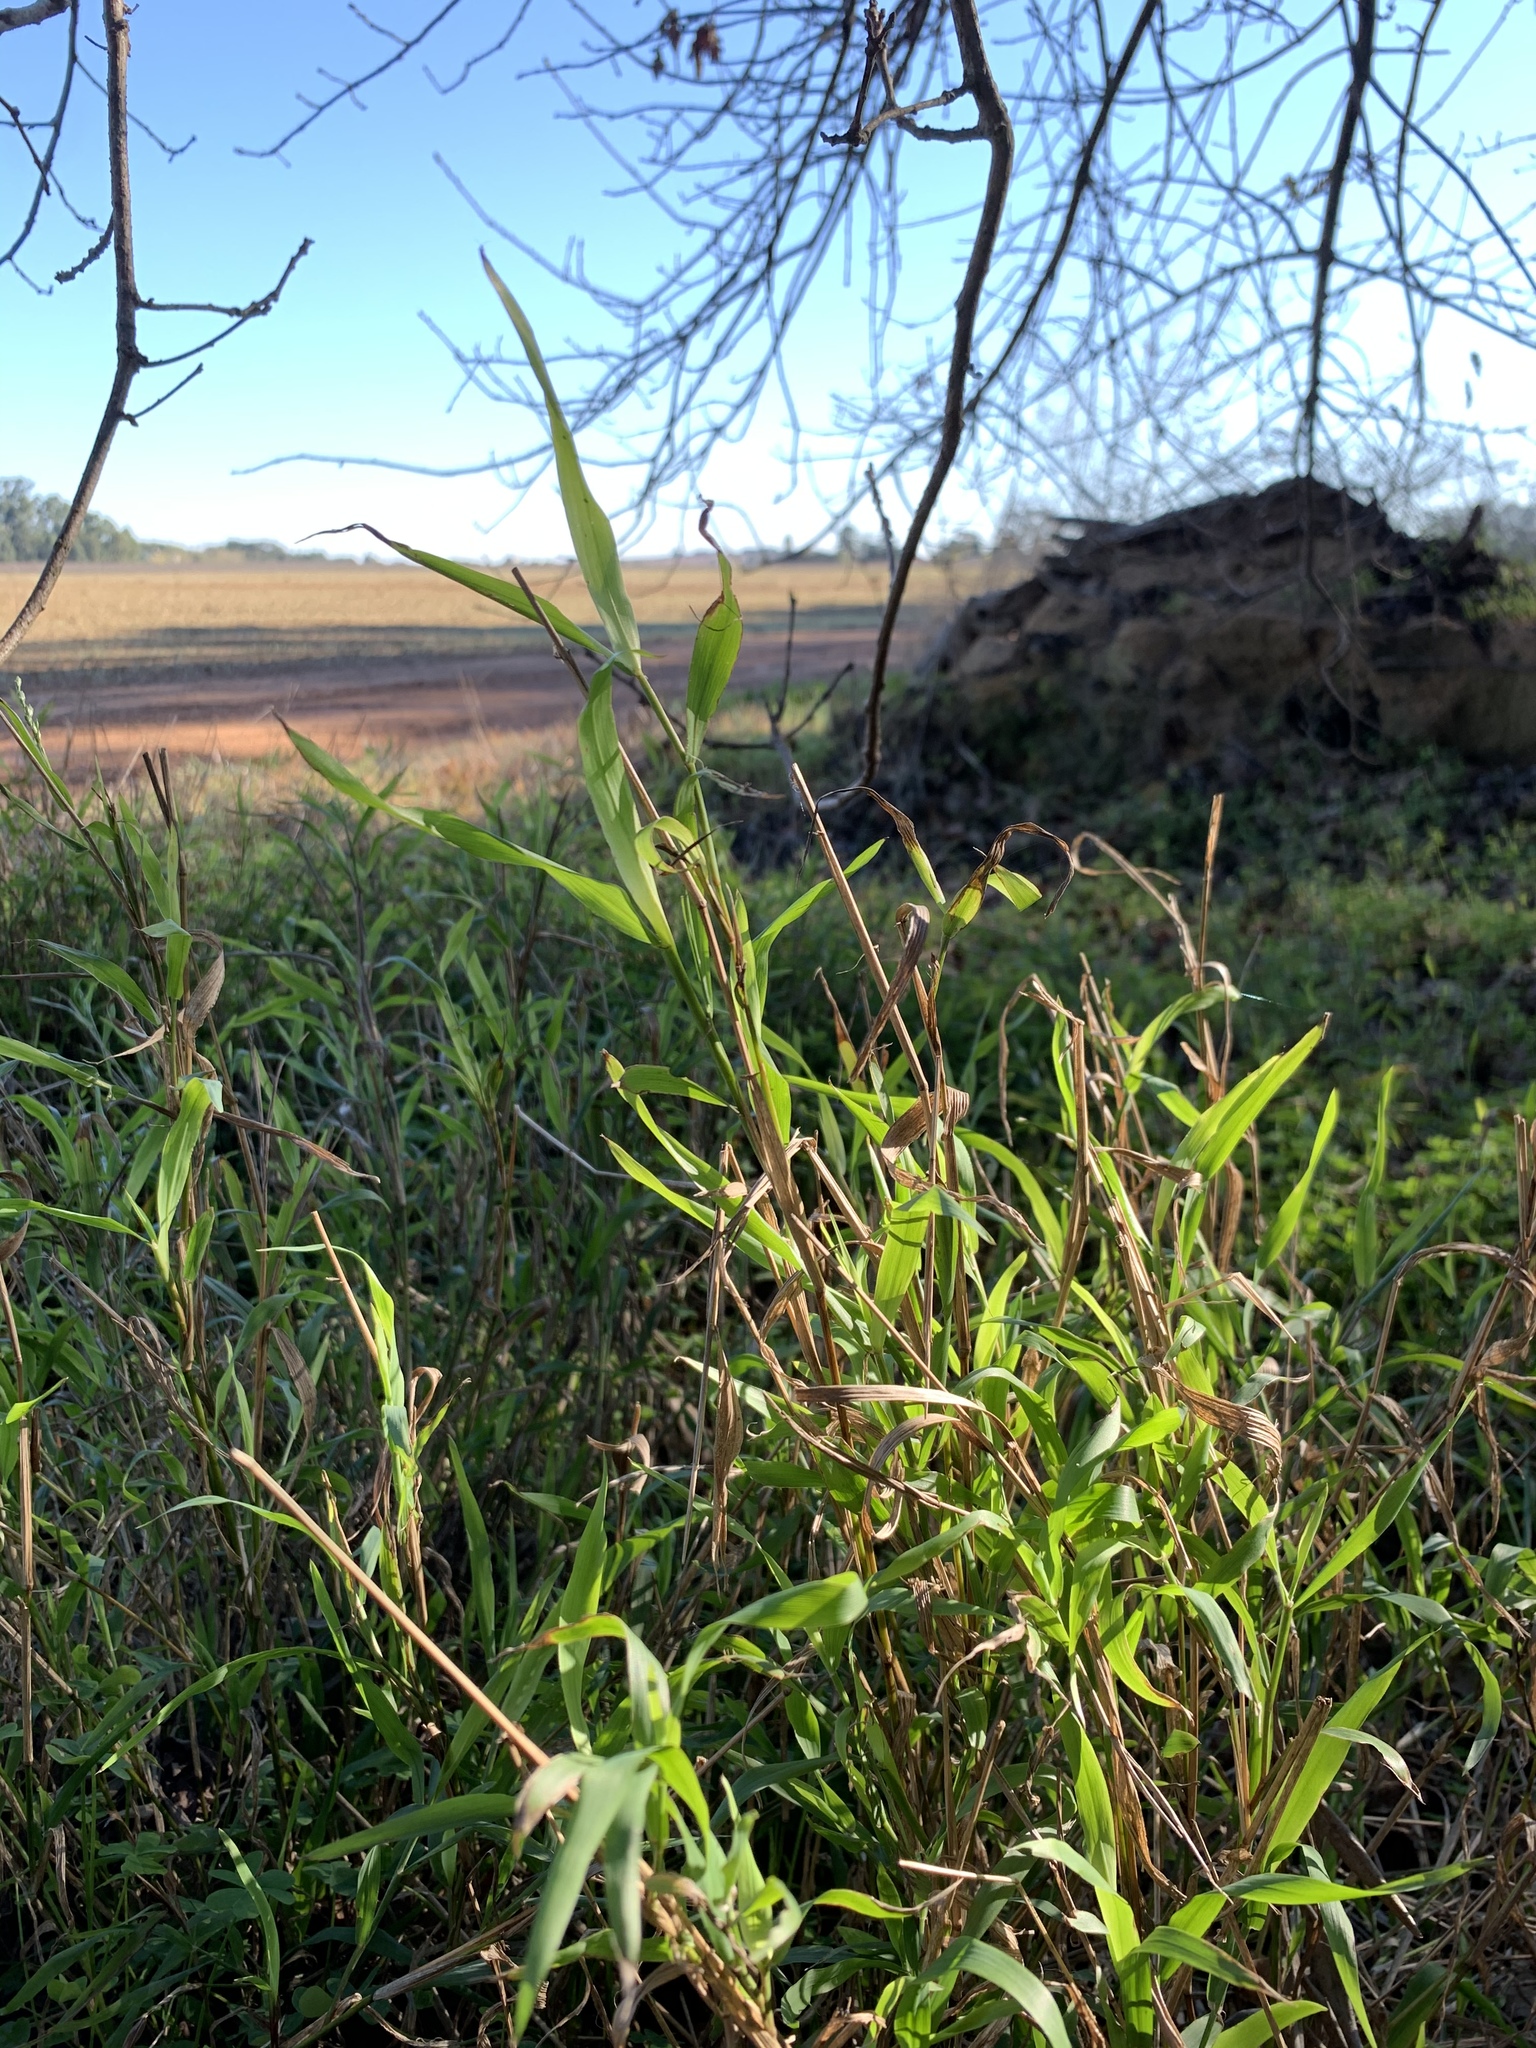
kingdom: Plantae
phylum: Tracheophyta
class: Liliopsida
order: Poales
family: Poaceae
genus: Ehrharta
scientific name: Ehrharta erecta
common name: Panic veldtgrass
